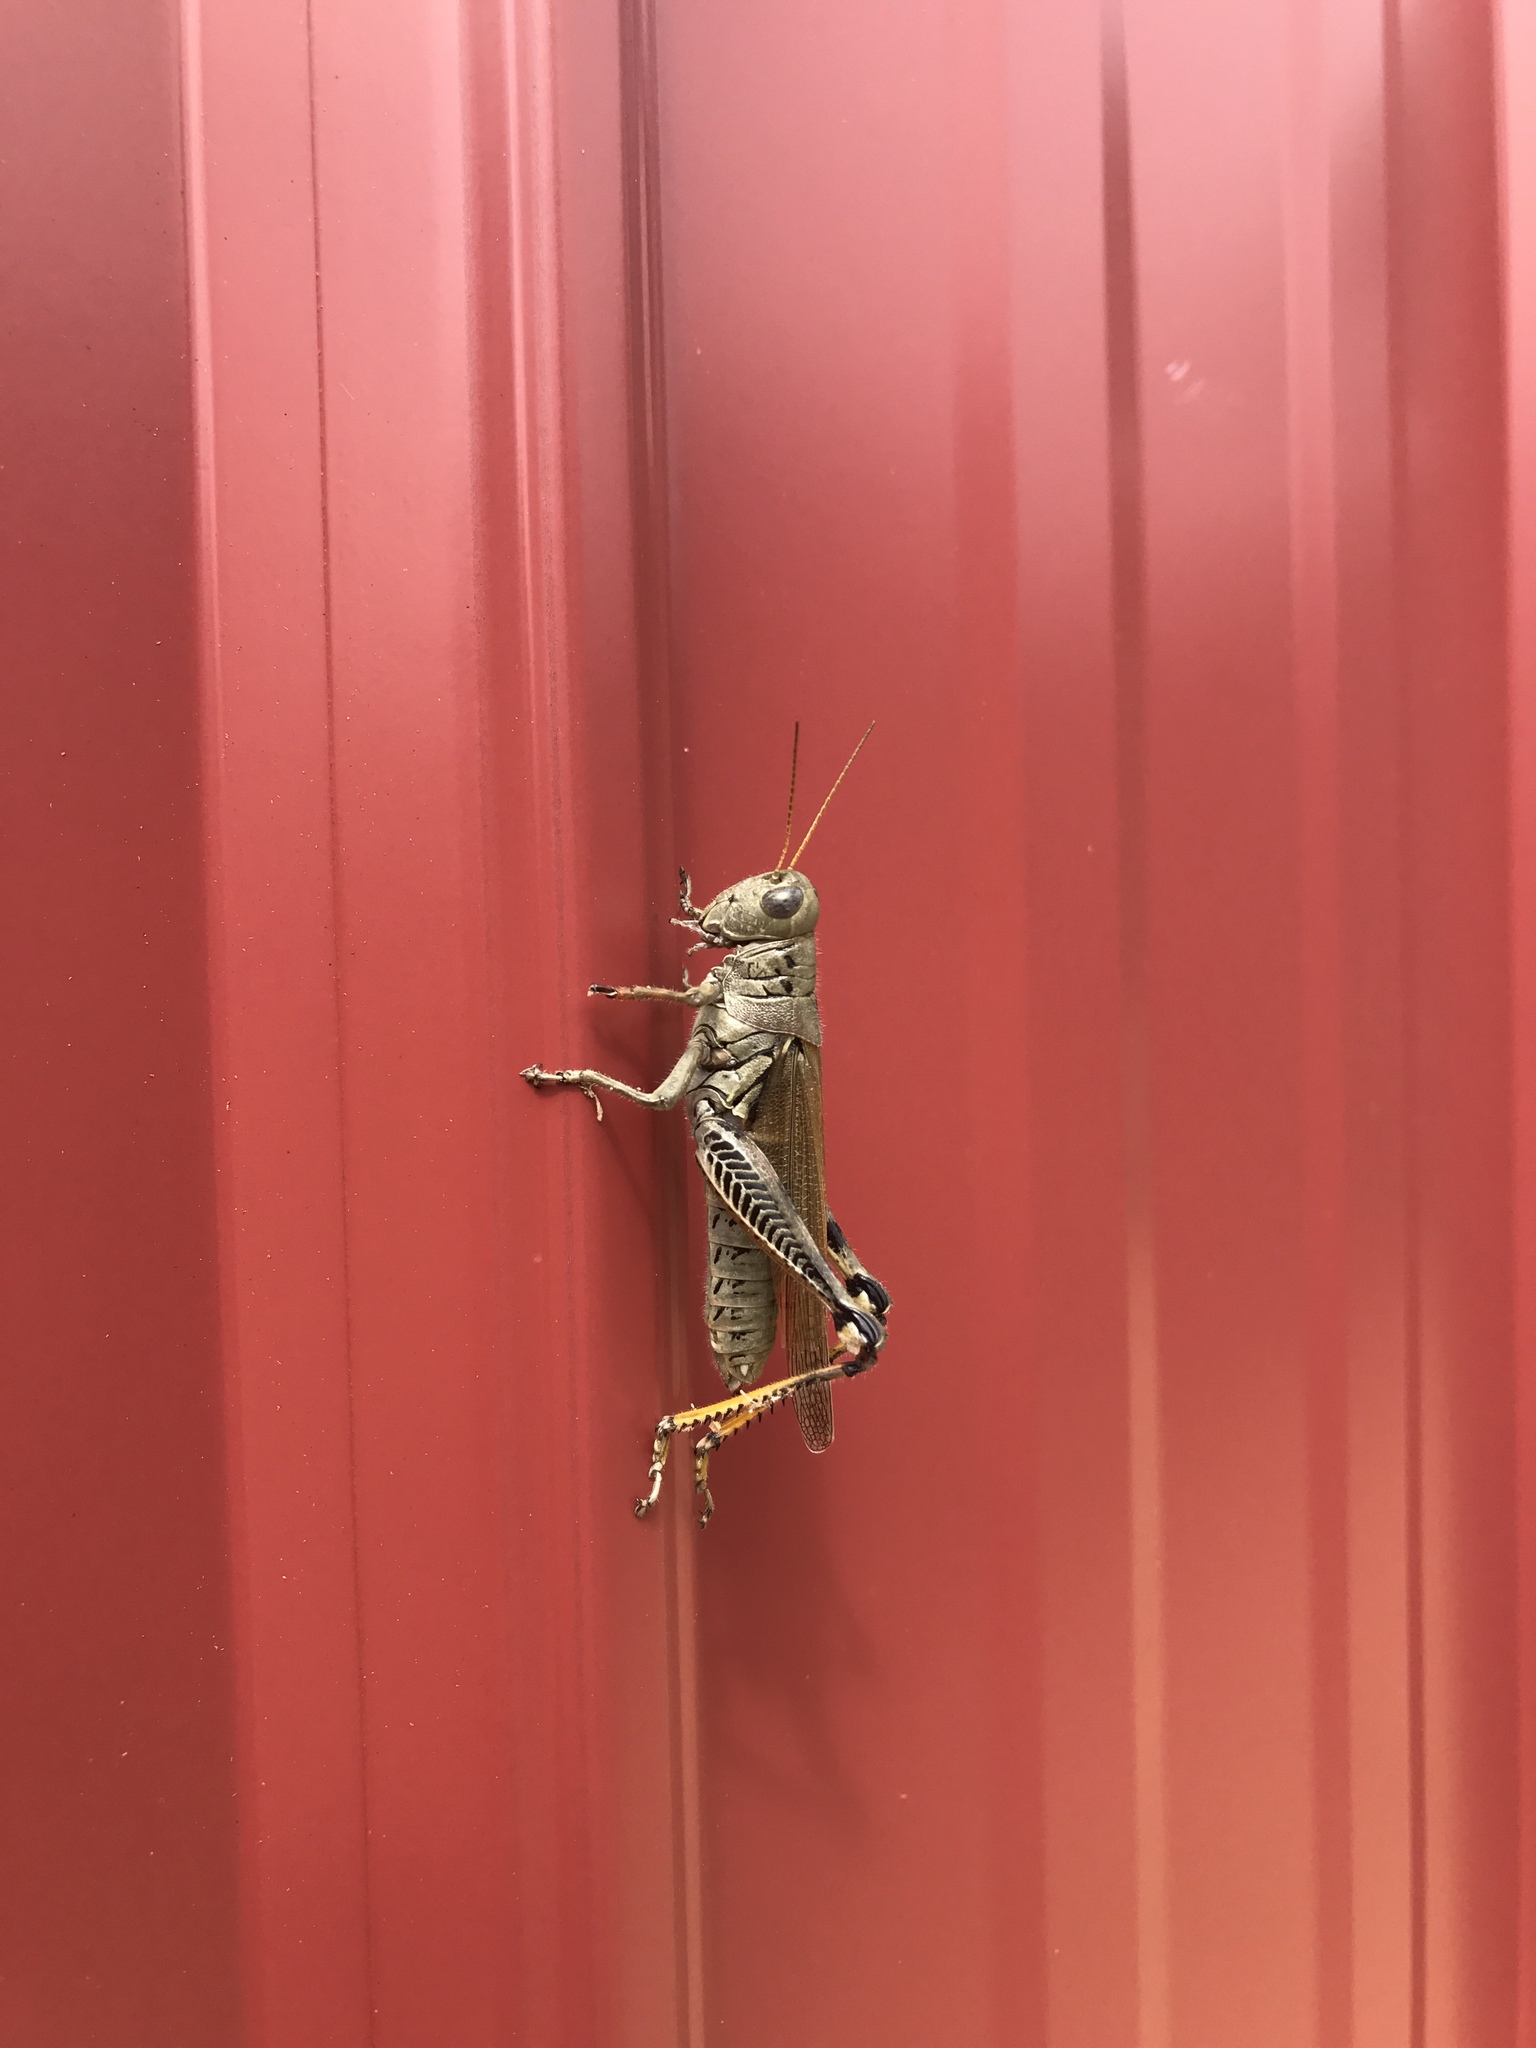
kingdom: Animalia
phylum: Arthropoda
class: Insecta
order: Orthoptera
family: Acrididae
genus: Melanoplus
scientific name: Melanoplus differentialis
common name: Differential grasshopper
